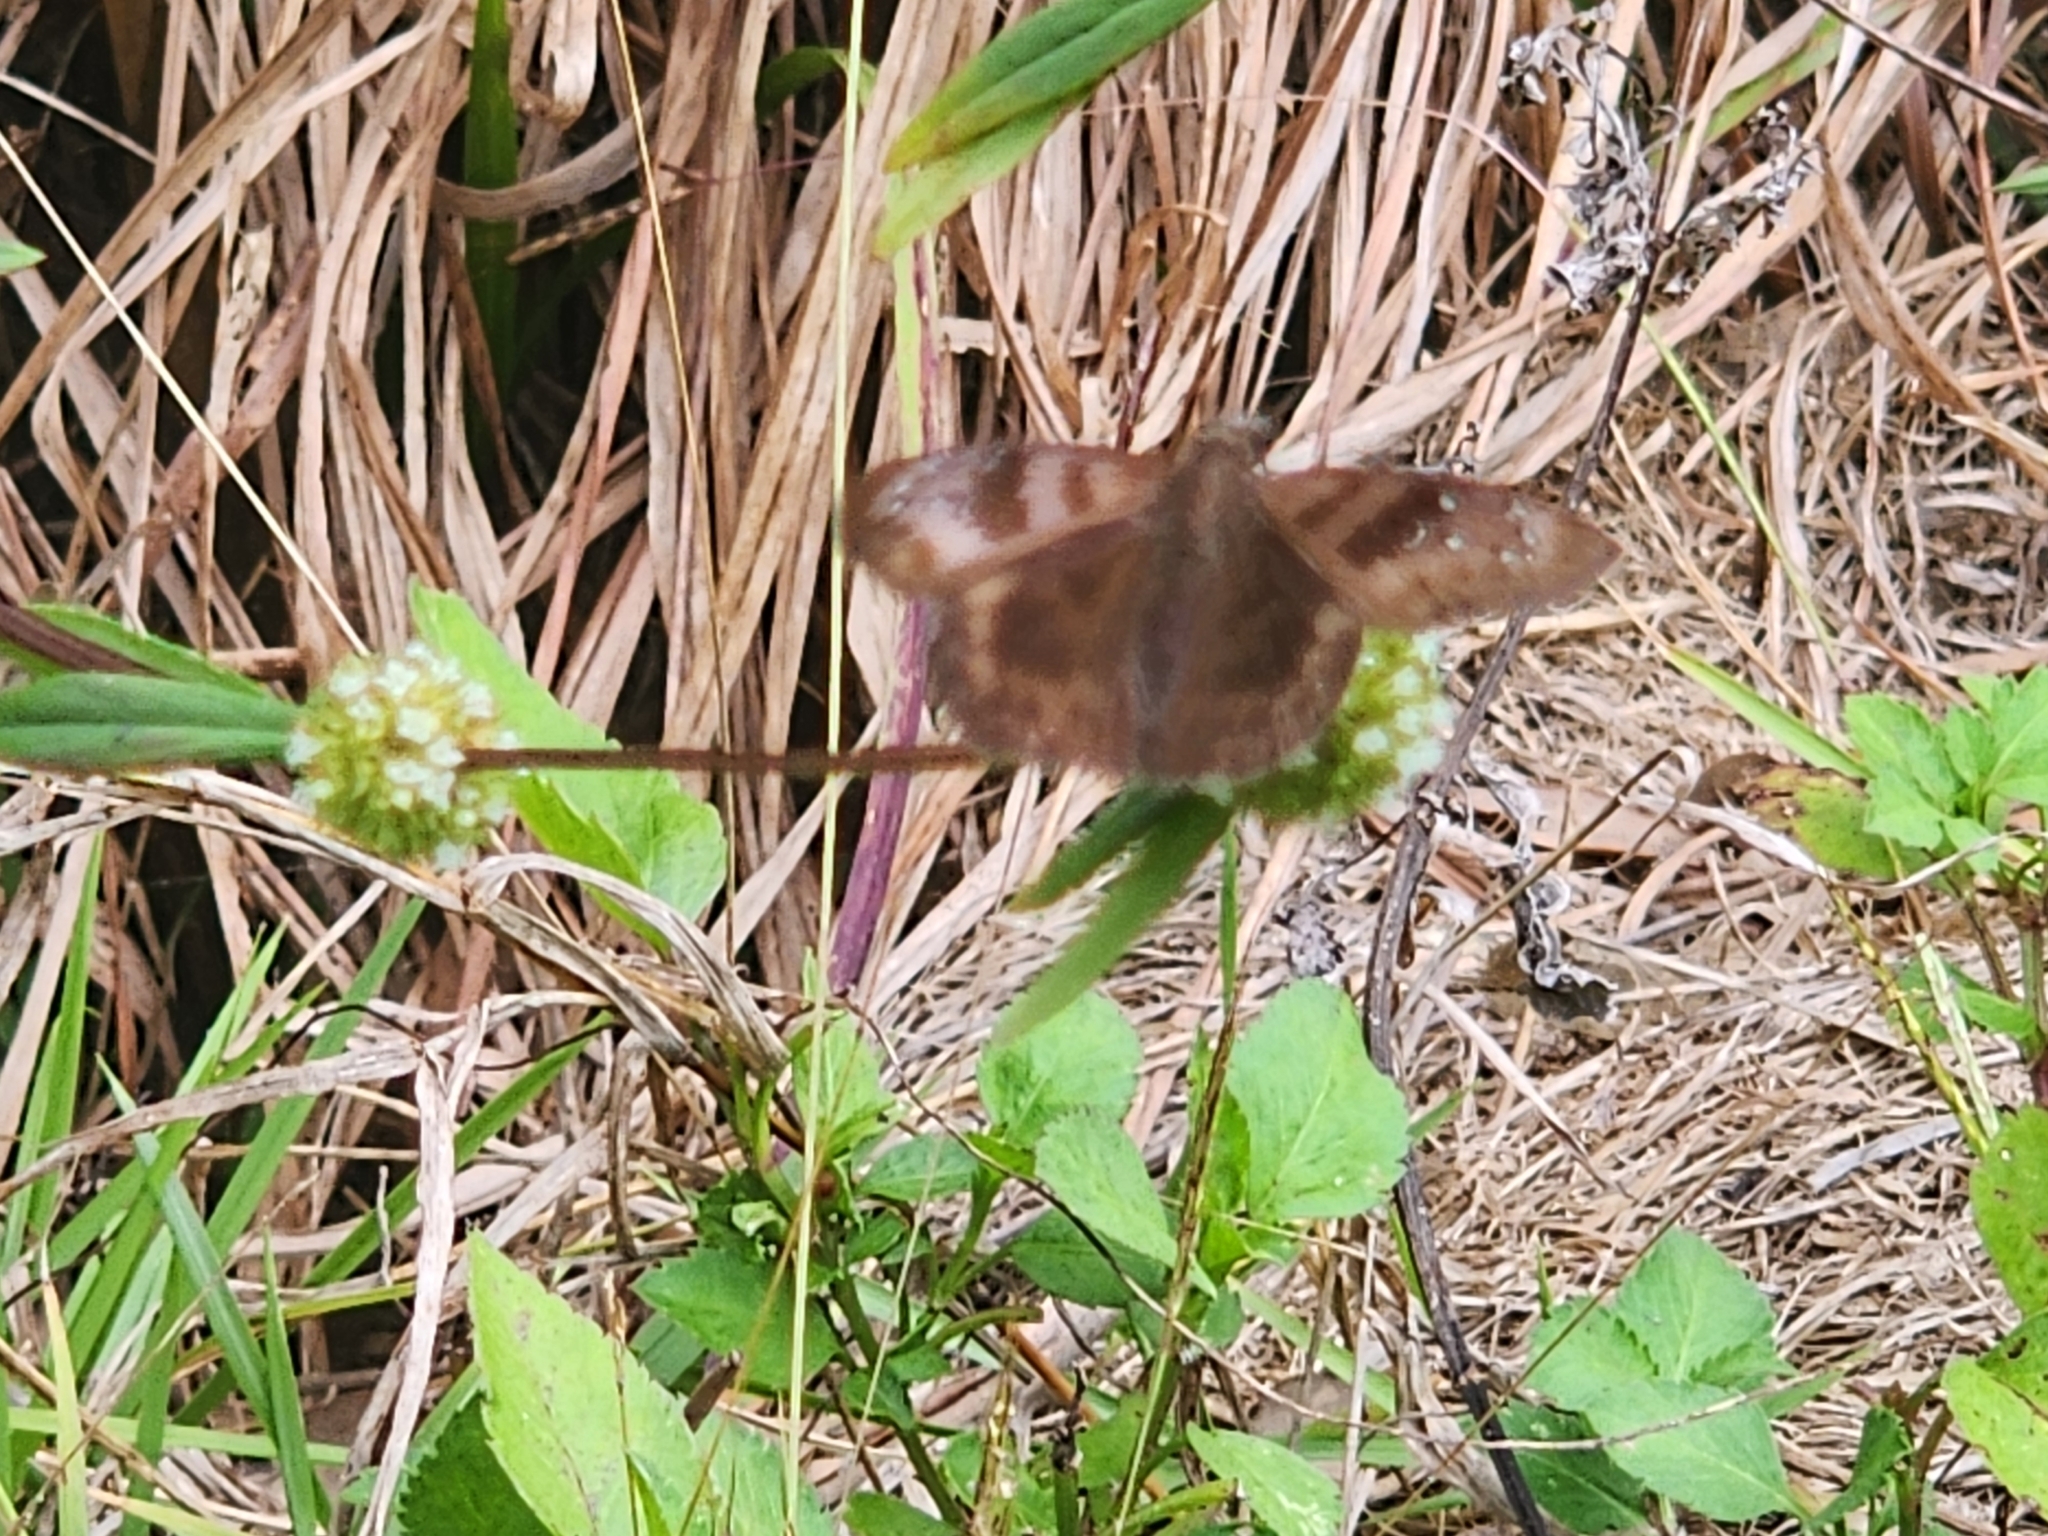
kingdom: Animalia
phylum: Arthropoda
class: Insecta
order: Lepidoptera
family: Hesperiidae
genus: Ephyriades
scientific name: Ephyriades brunnea
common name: Florida duskywing
